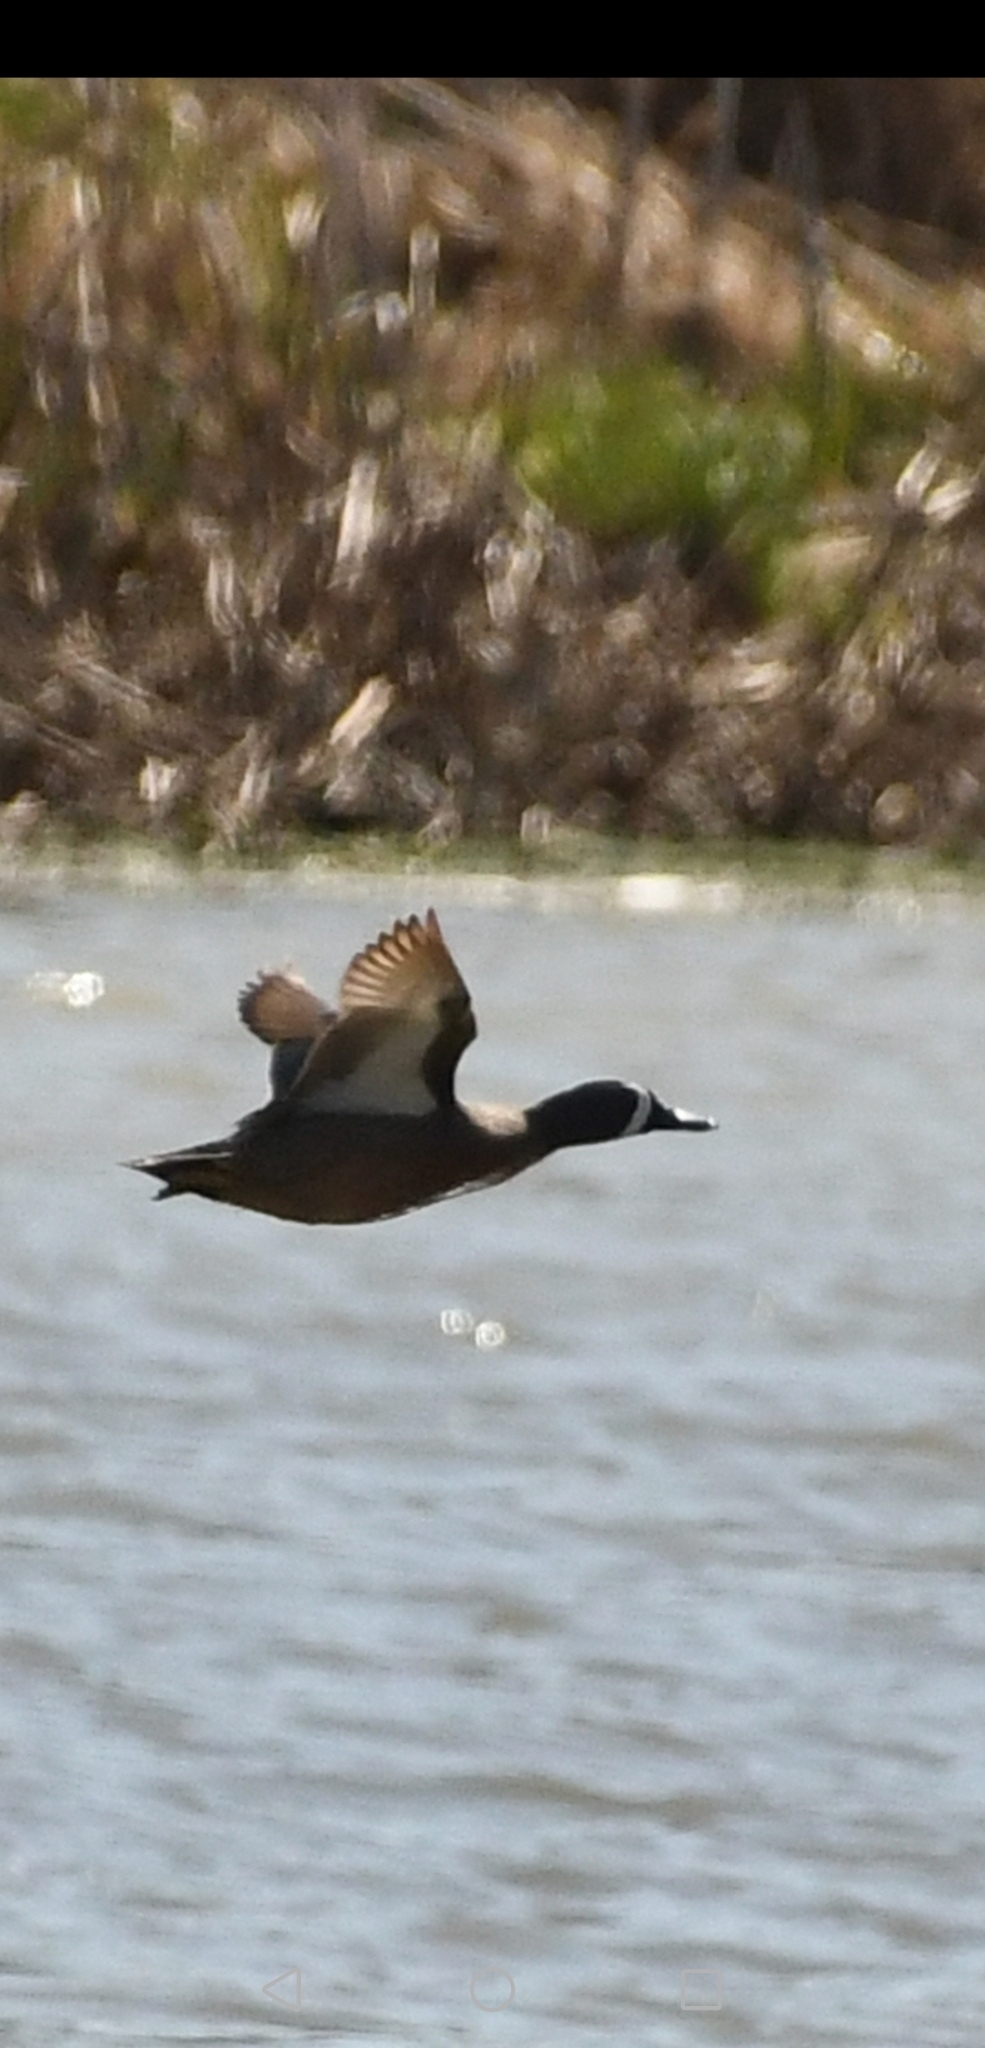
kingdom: Animalia
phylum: Chordata
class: Aves
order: Anseriformes
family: Anatidae
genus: Spatula
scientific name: Spatula discors
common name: Blue-winged teal
